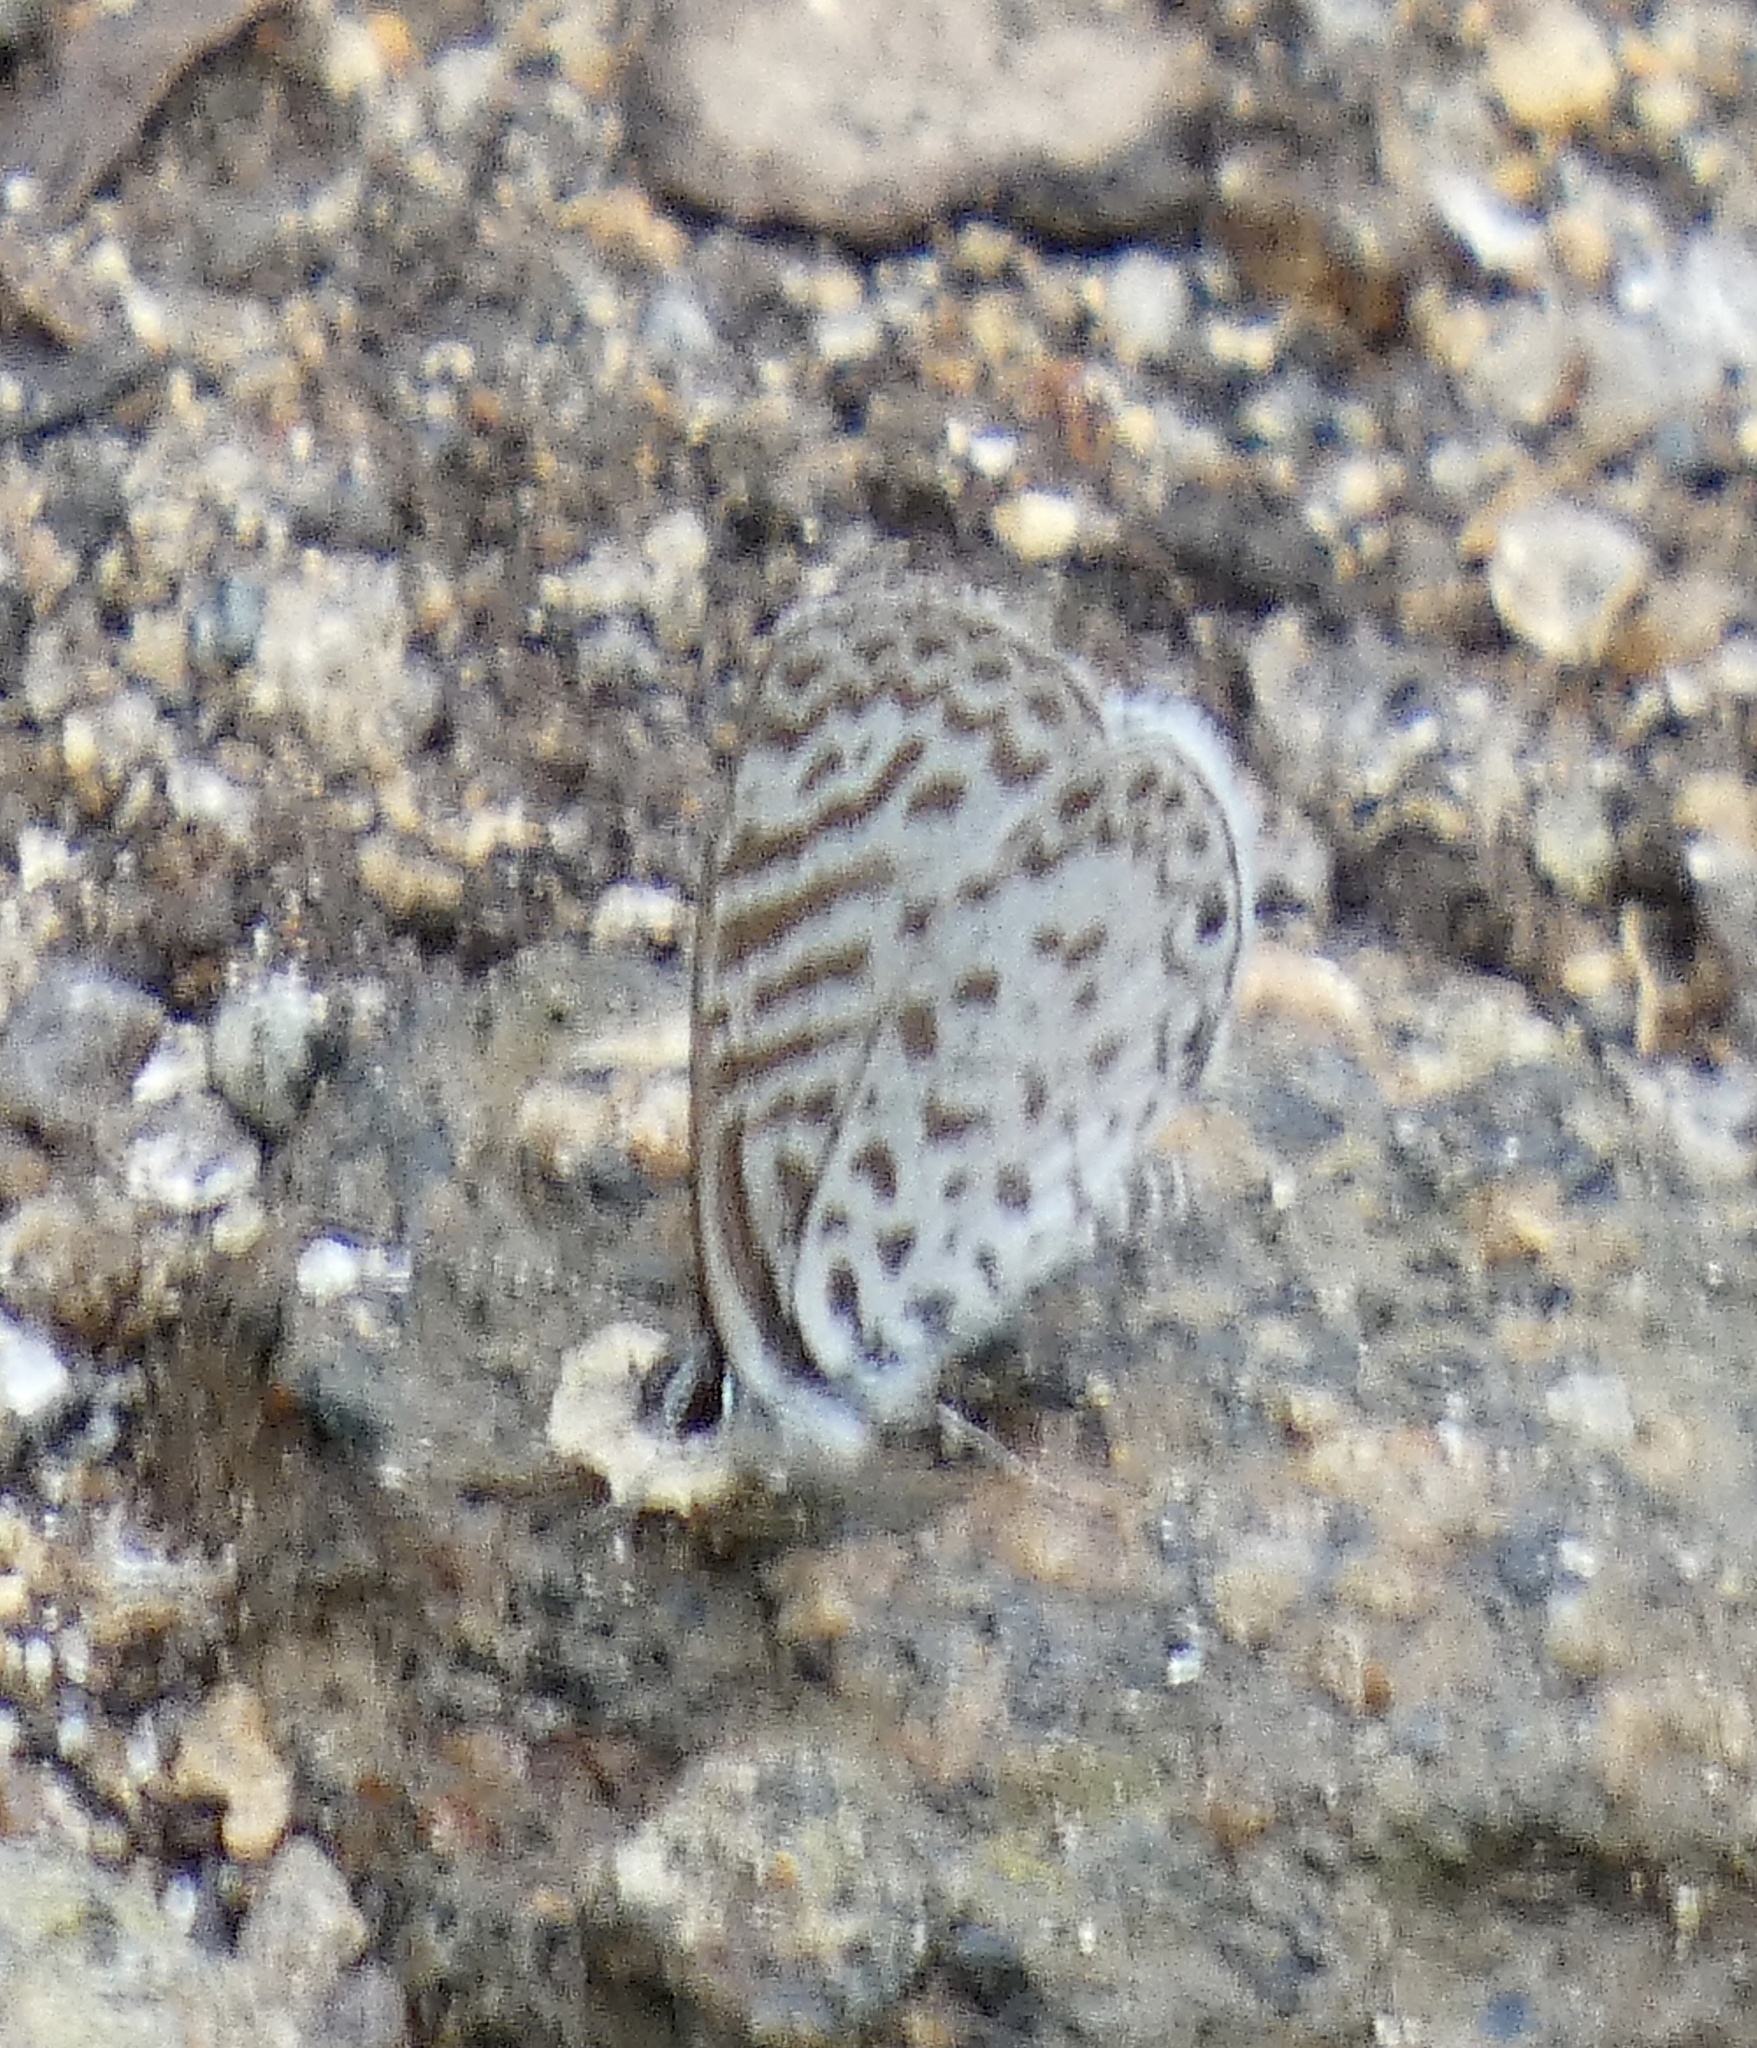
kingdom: Animalia
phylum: Arthropoda
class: Insecta
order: Lepidoptera
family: Lycaenidae
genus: Leptotes
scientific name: Leptotes cassius
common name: Cassius blue
